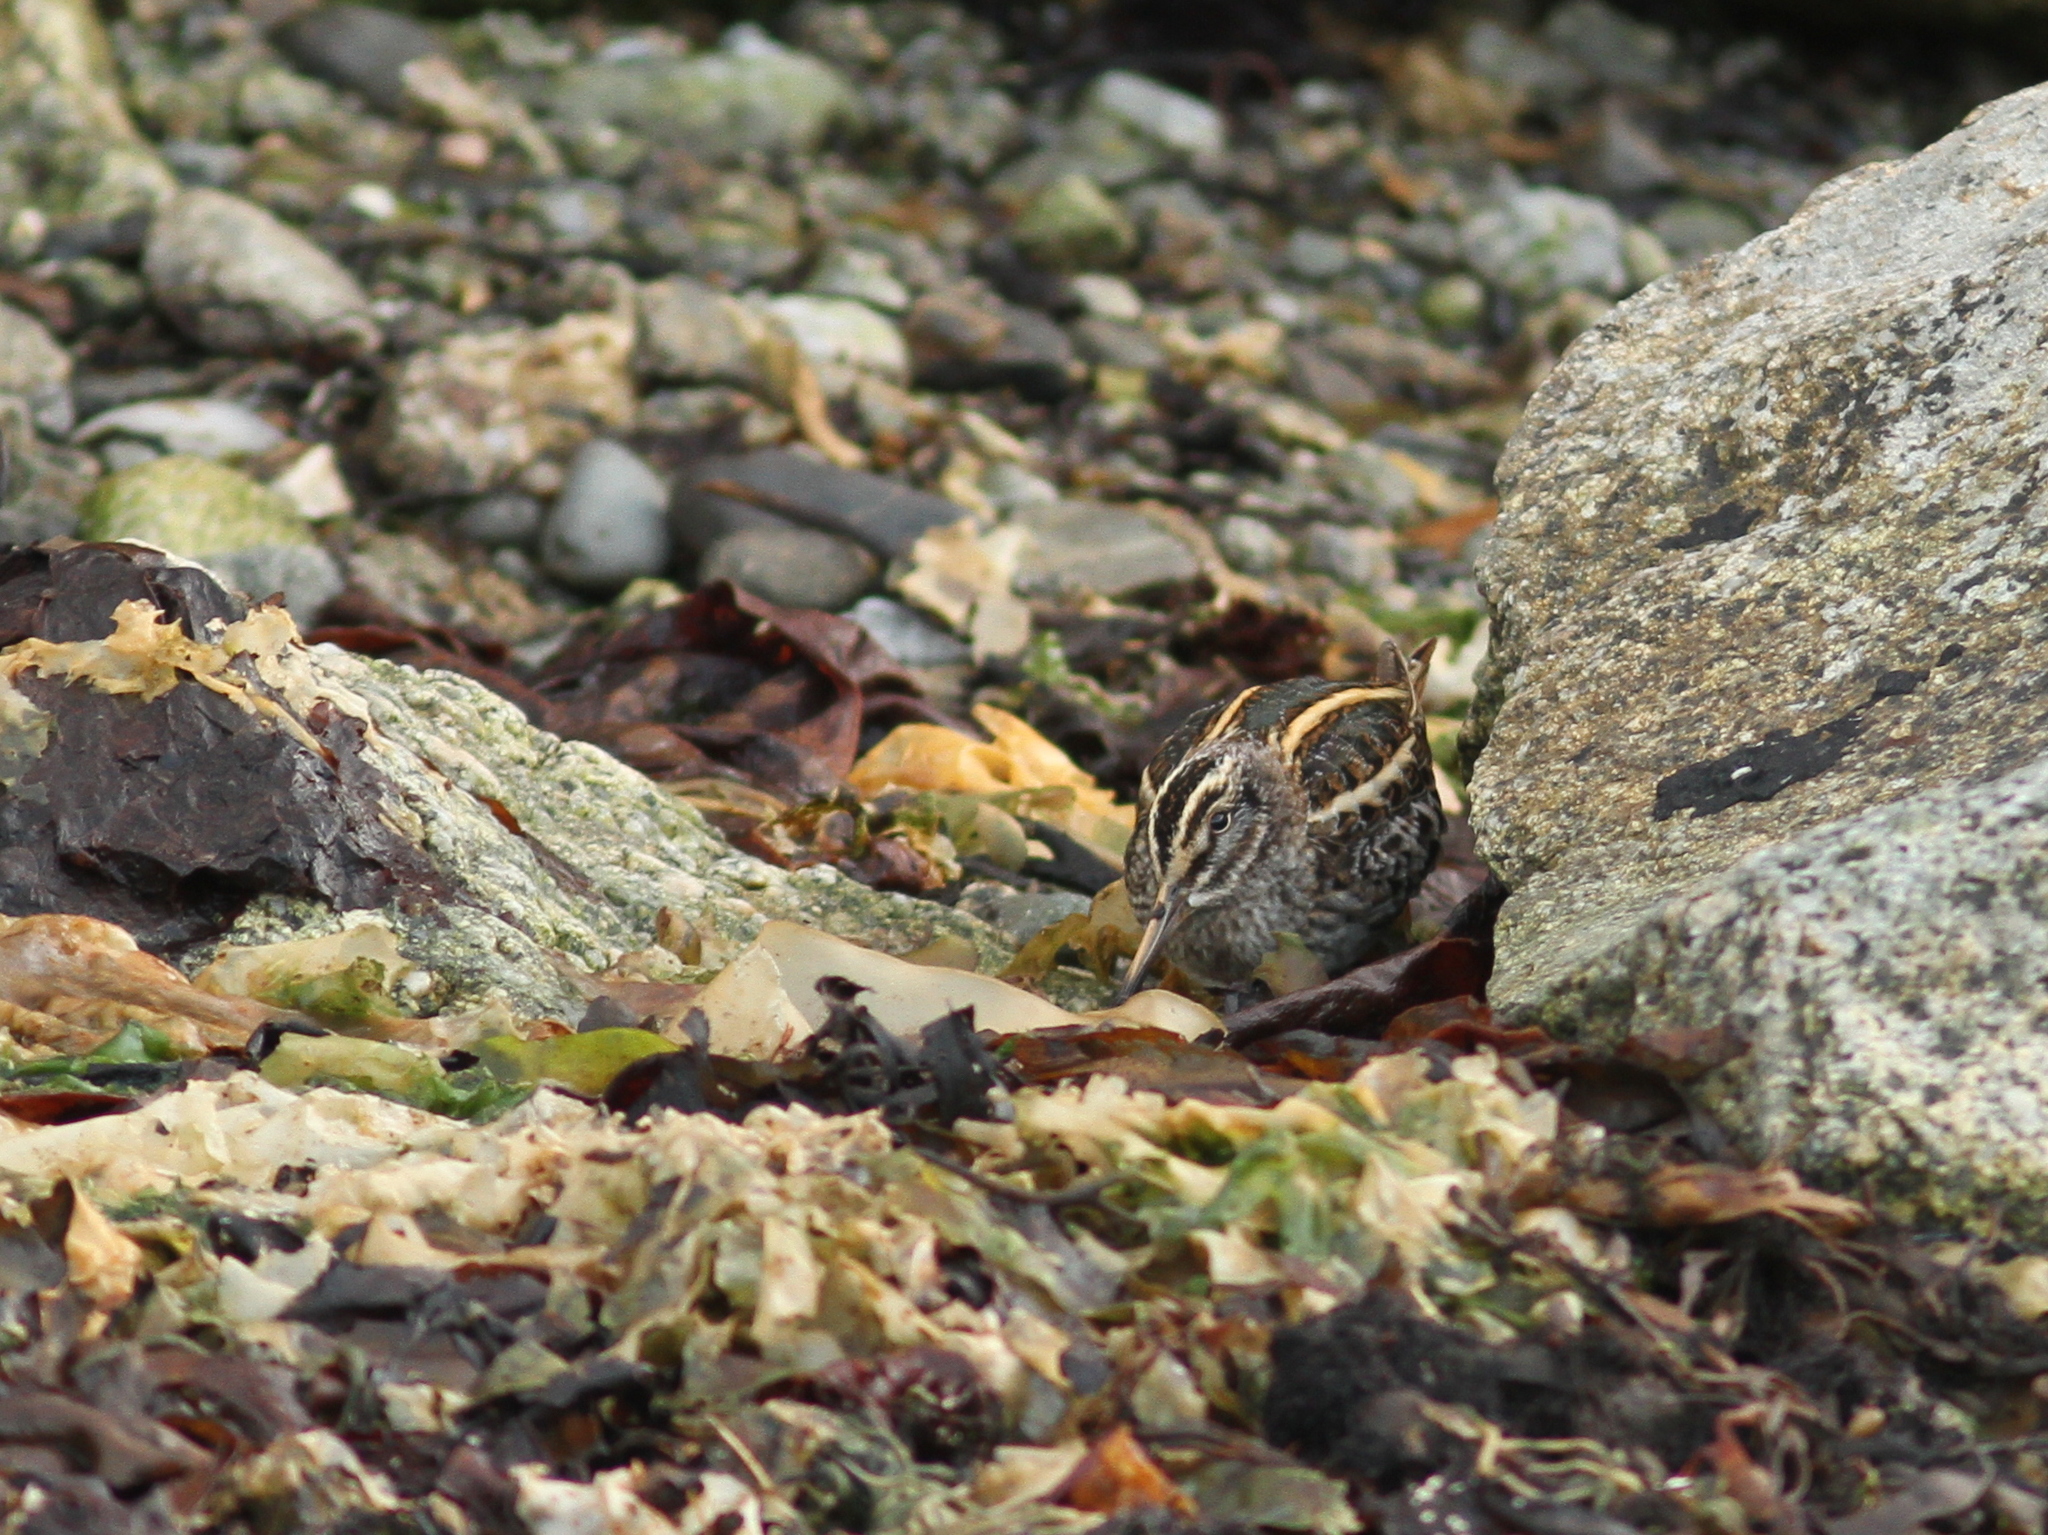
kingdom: Animalia
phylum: Chordata
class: Aves
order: Charadriiformes
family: Scolopacidae
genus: Lymnocryptes
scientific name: Lymnocryptes minimus
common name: Jack snipe
